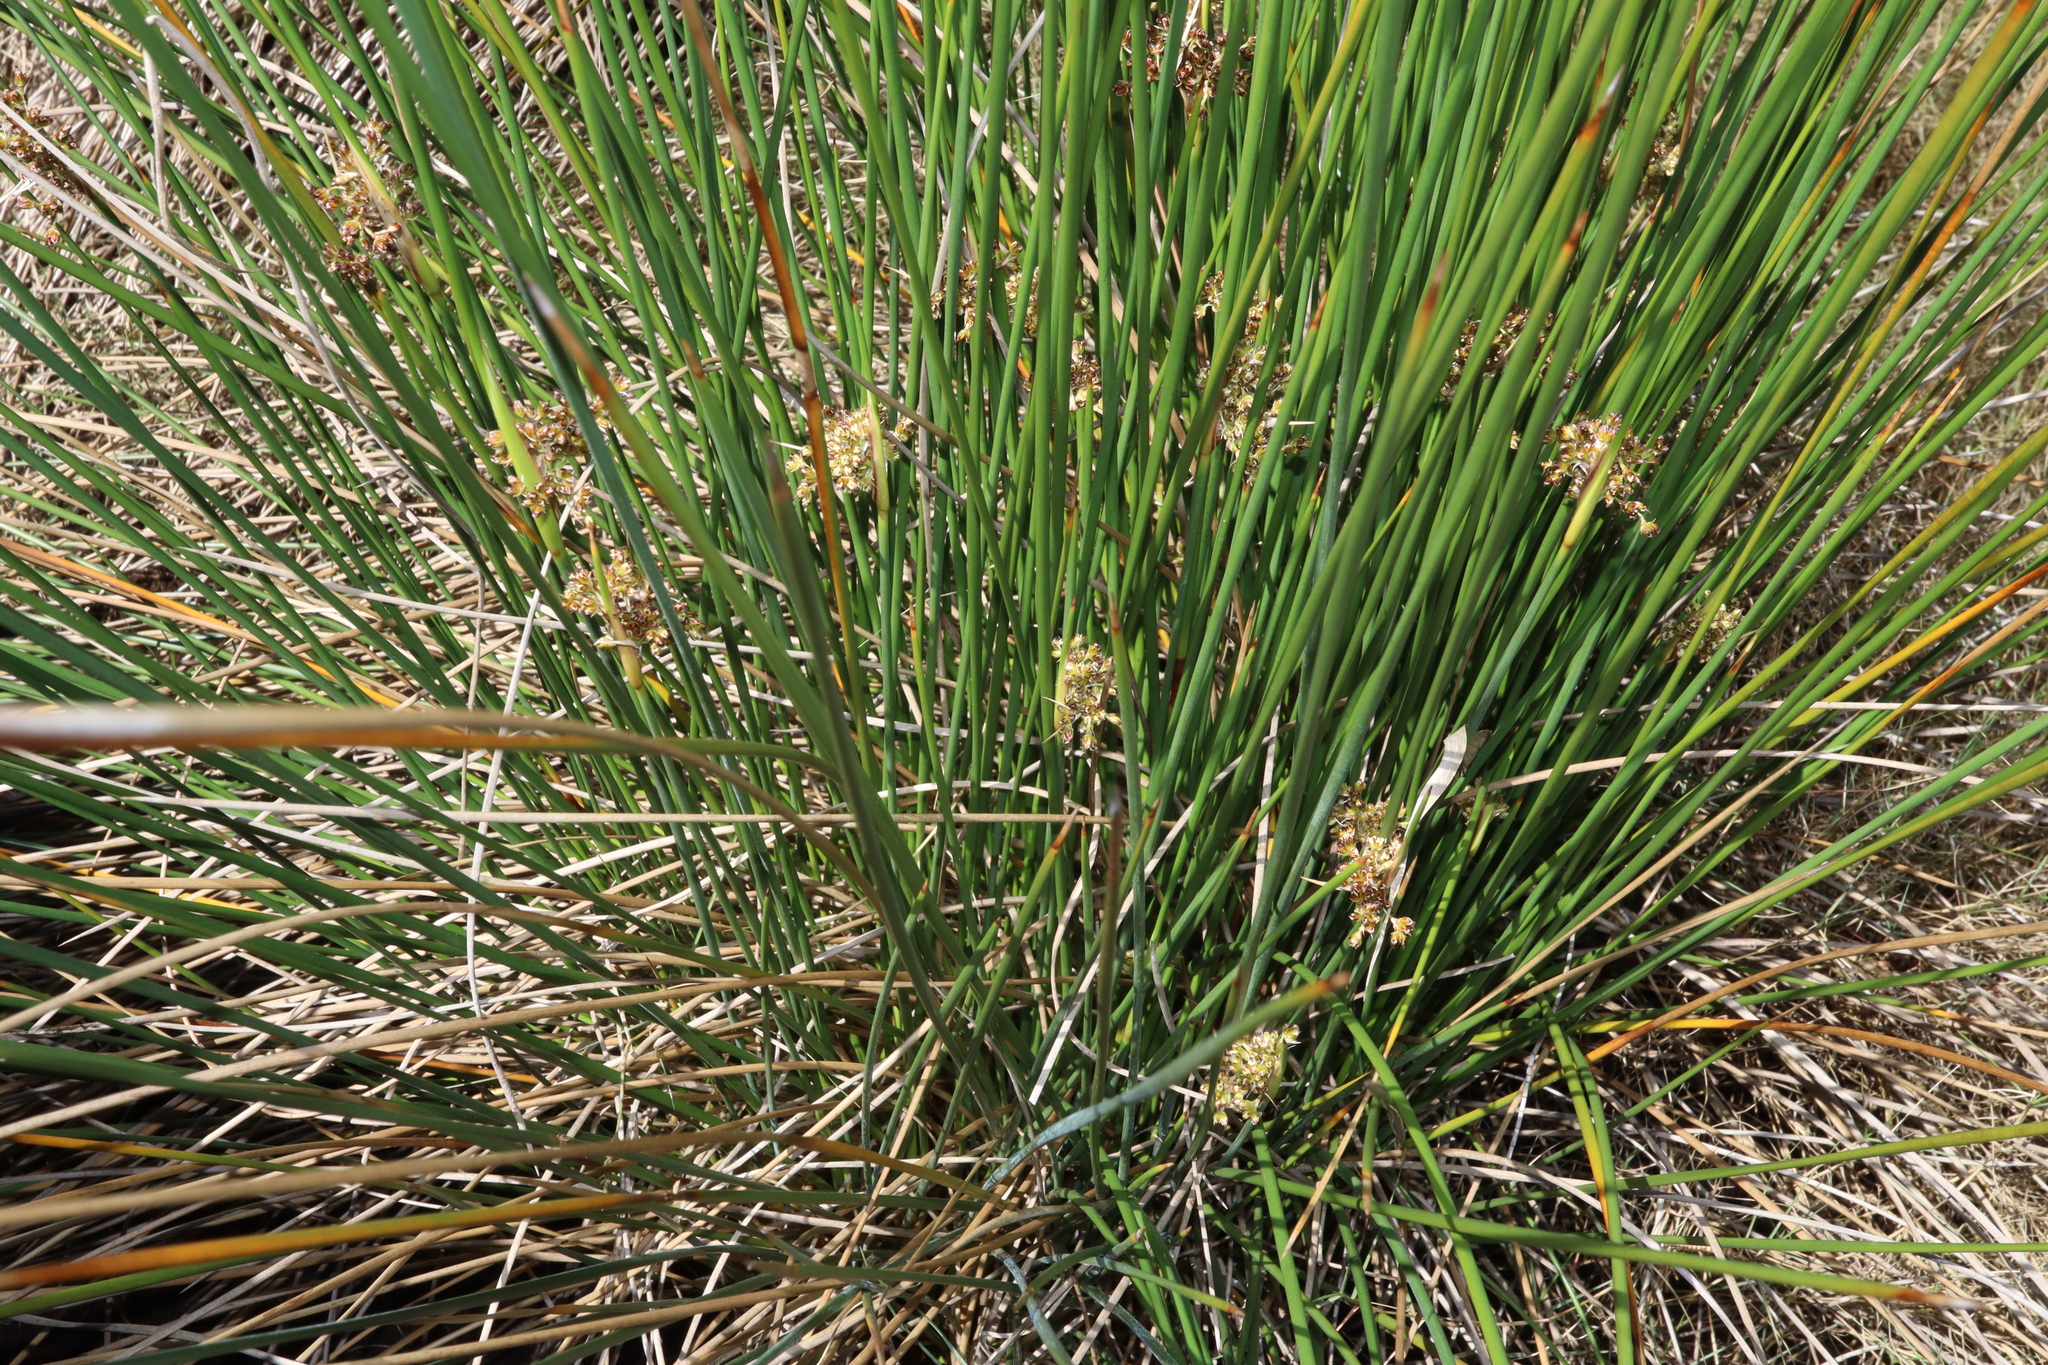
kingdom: Plantae
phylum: Tracheophyta
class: Liliopsida
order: Poales
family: Juncaceae
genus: Juncus
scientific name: Juncus acutus
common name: Sharp rush
